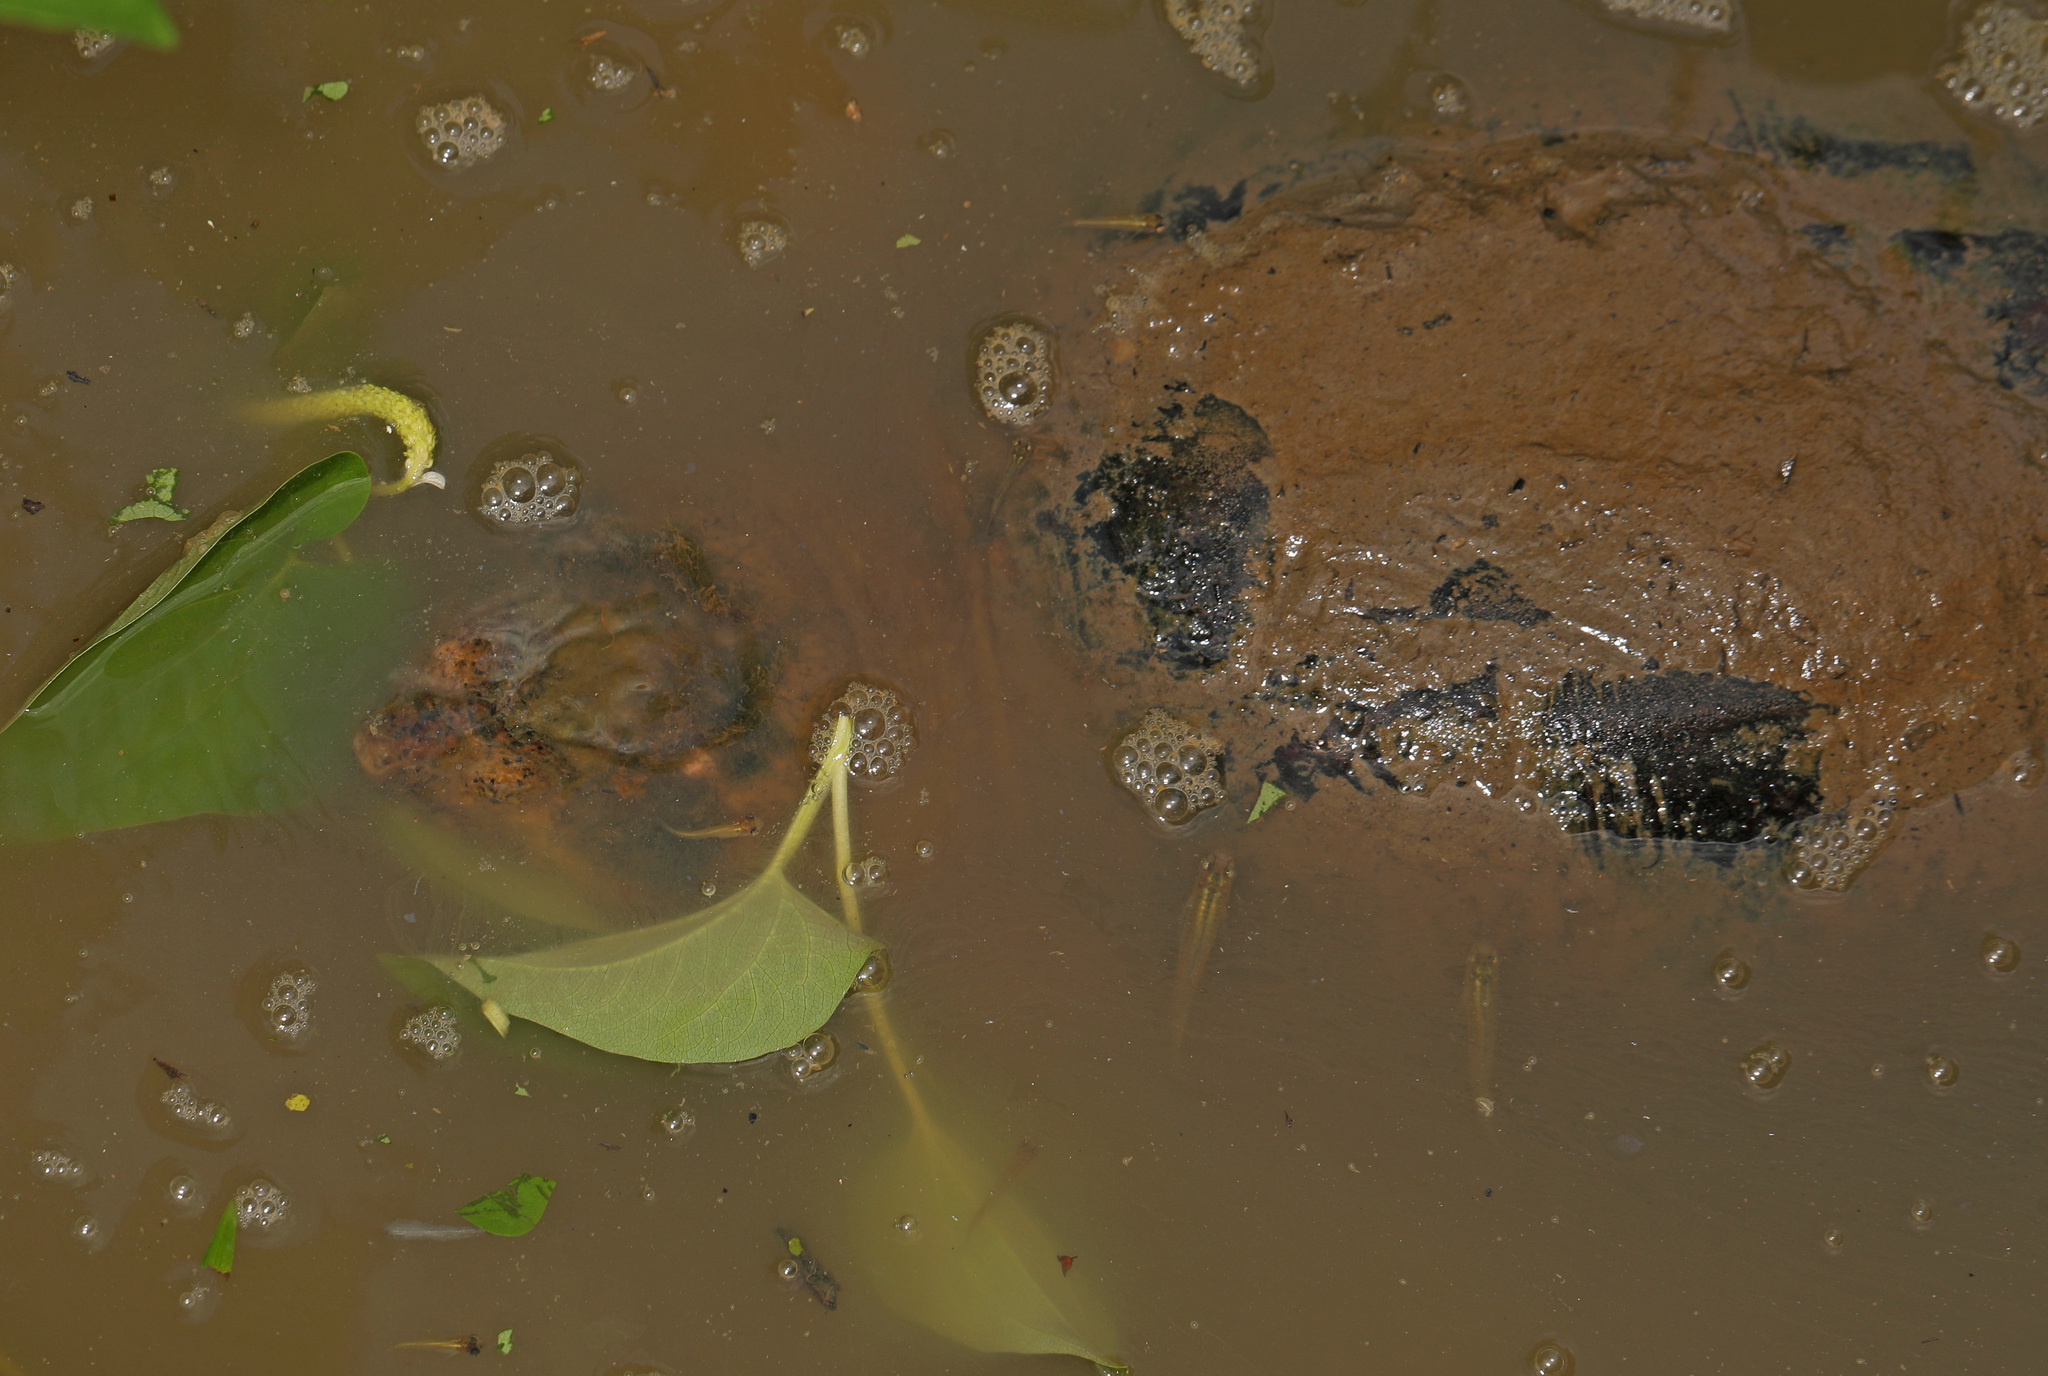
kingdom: Animalia
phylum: Chordata
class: Testudines
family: Chelydridae
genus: Chelydra
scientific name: Chelydra serpentina
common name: Common snapping turtle
